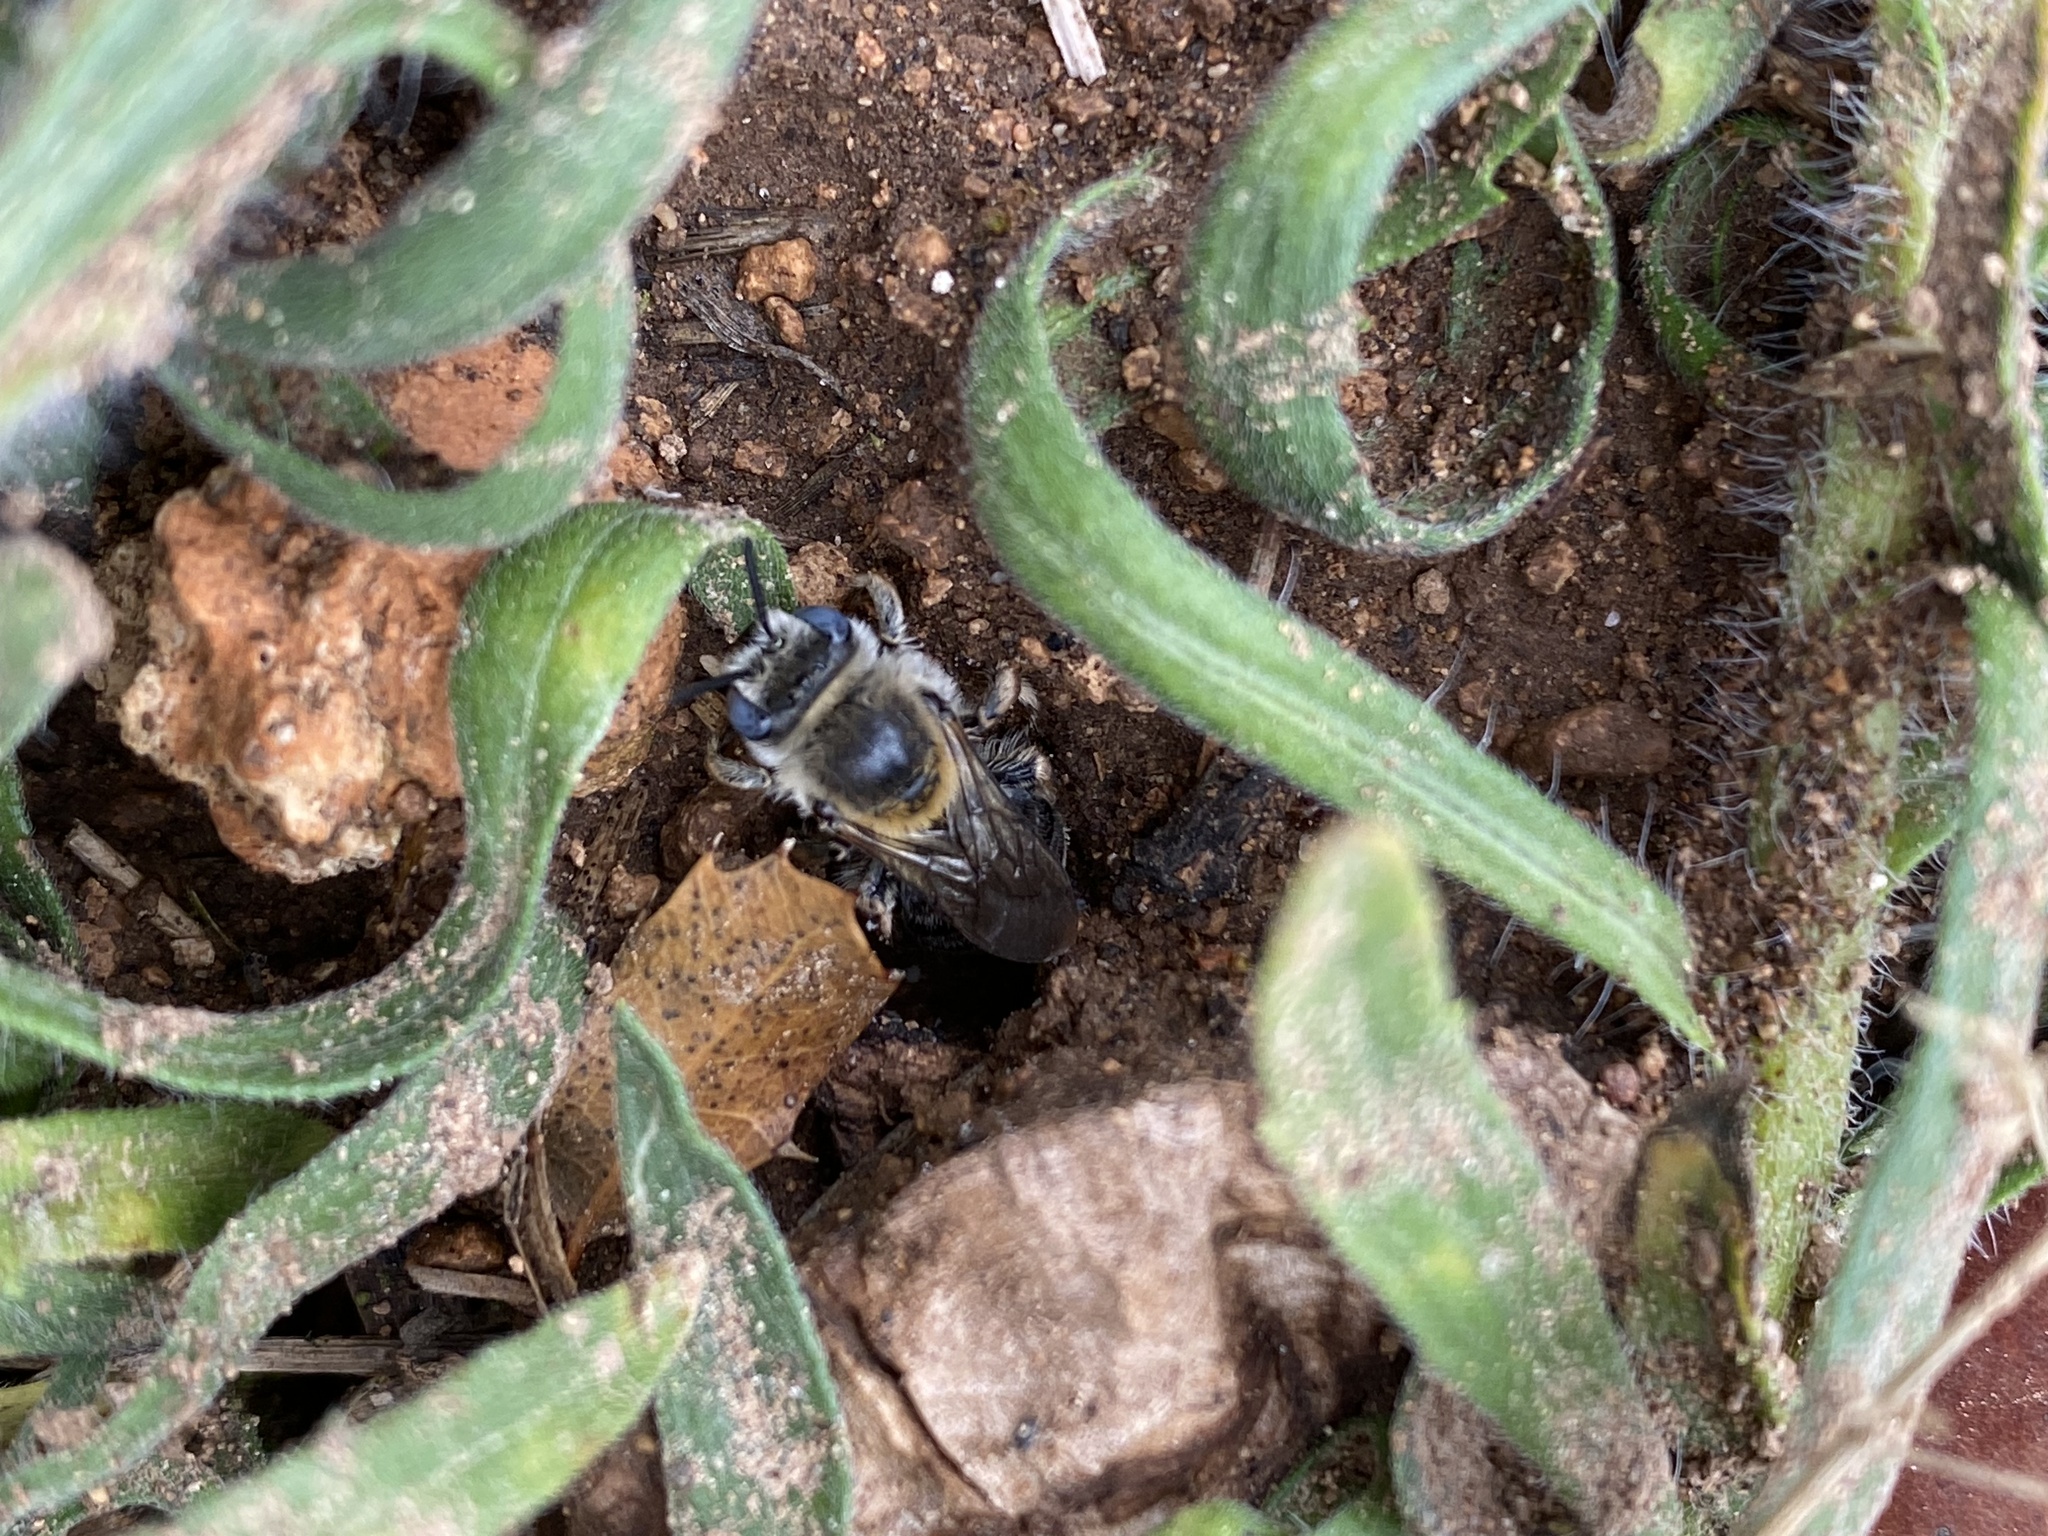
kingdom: Animalia
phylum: Arthropoda
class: Insecta
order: Hymenoptera
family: Apidae
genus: Tetraloniella
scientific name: Tetraloniella strigata
